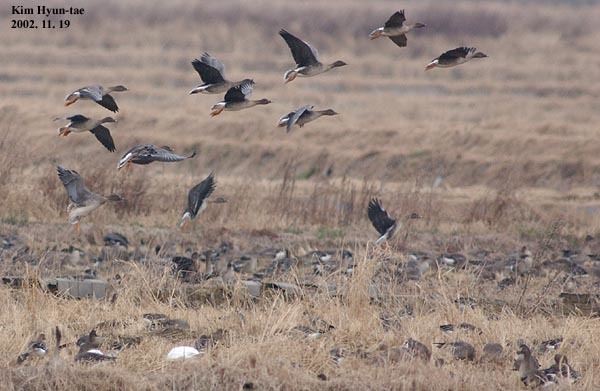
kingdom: Animalia
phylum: Chordata
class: Aves
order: Anseriformes
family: Anatidae
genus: Anser
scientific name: Anser fabalis
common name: Bean goose
